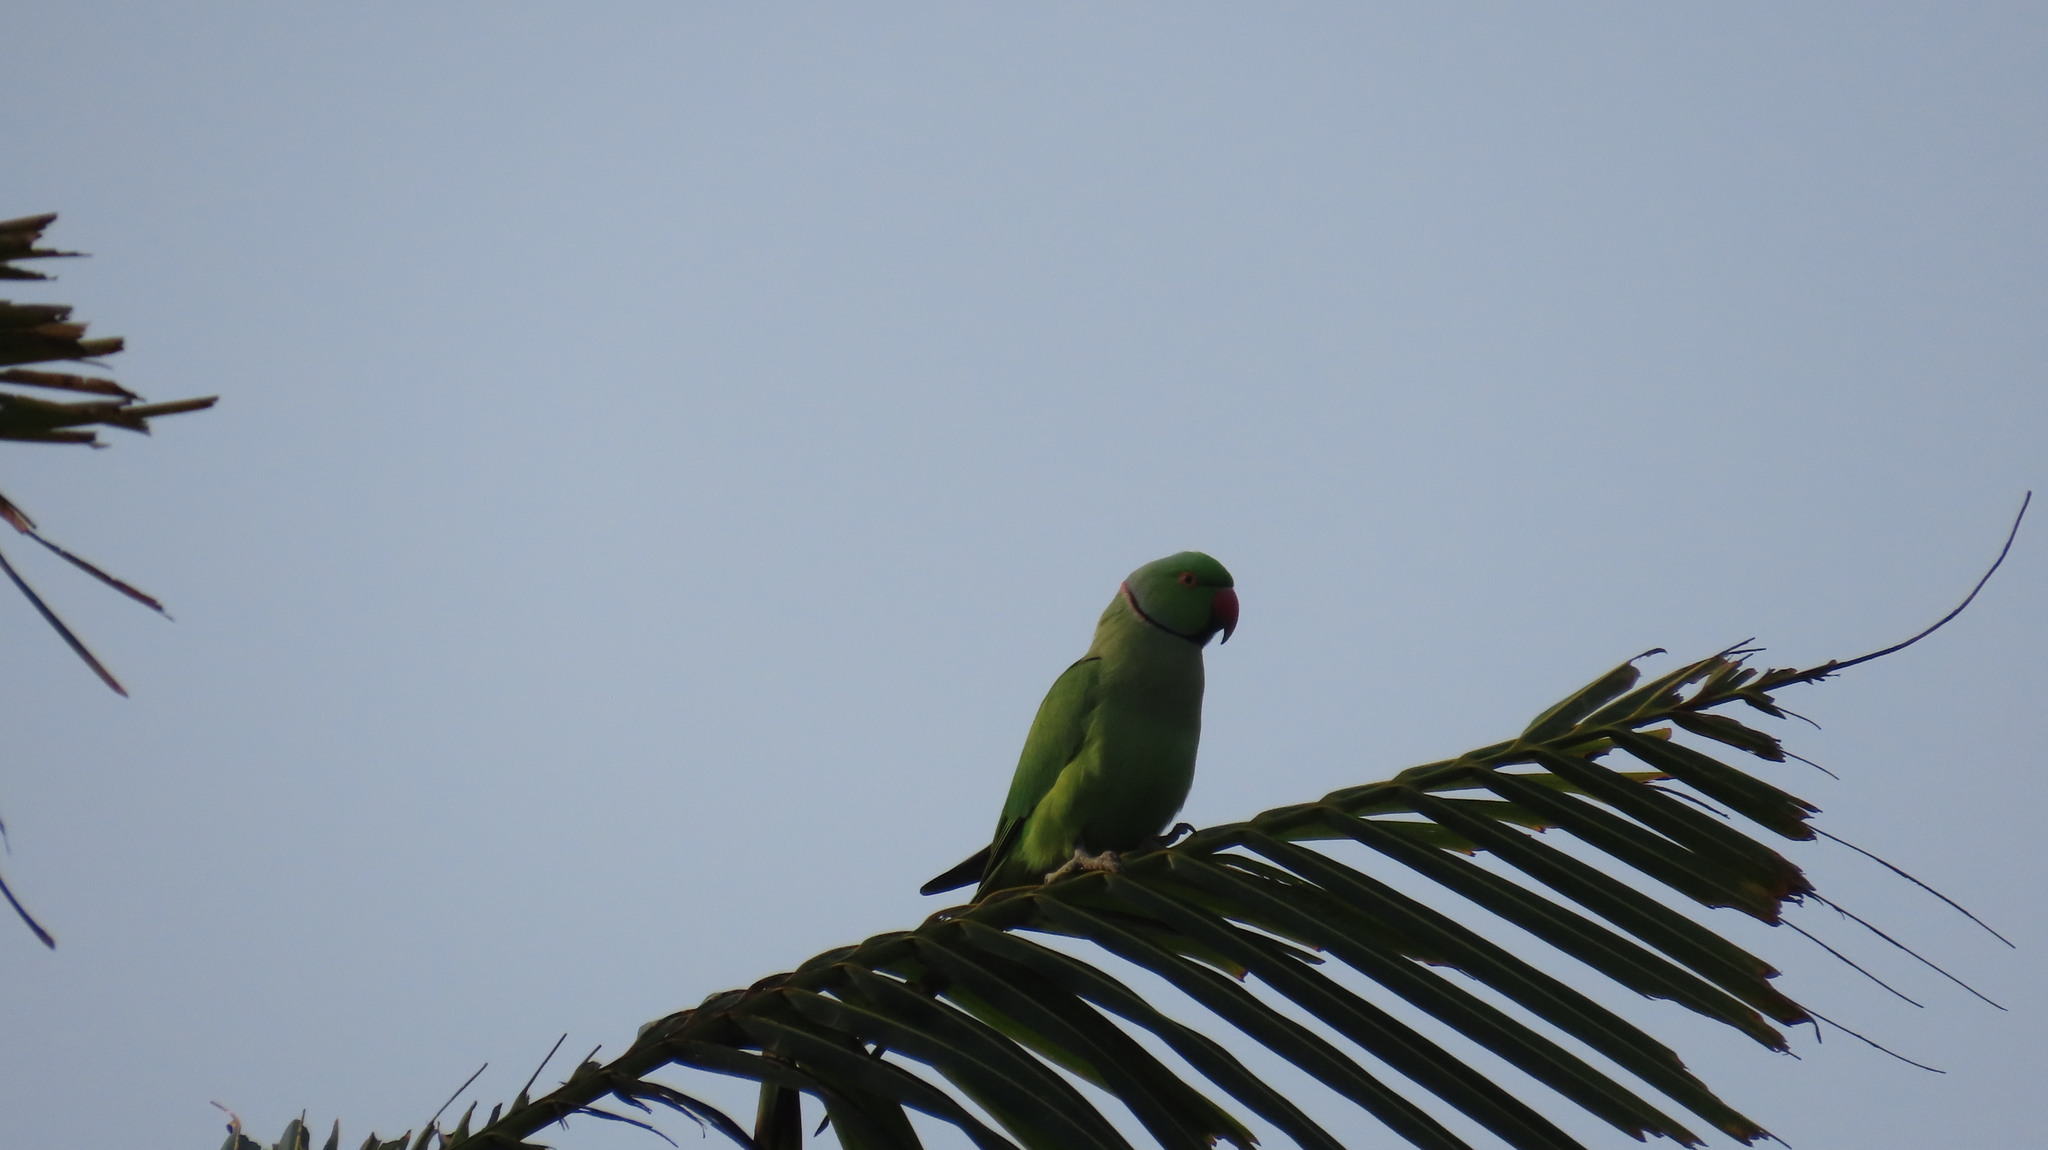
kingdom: Animalia
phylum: Chordata
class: Aves
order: Psittaciformes
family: Psittacidae
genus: Psittacula
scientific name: Psittacula krameri
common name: Rose-ringed parakeet
